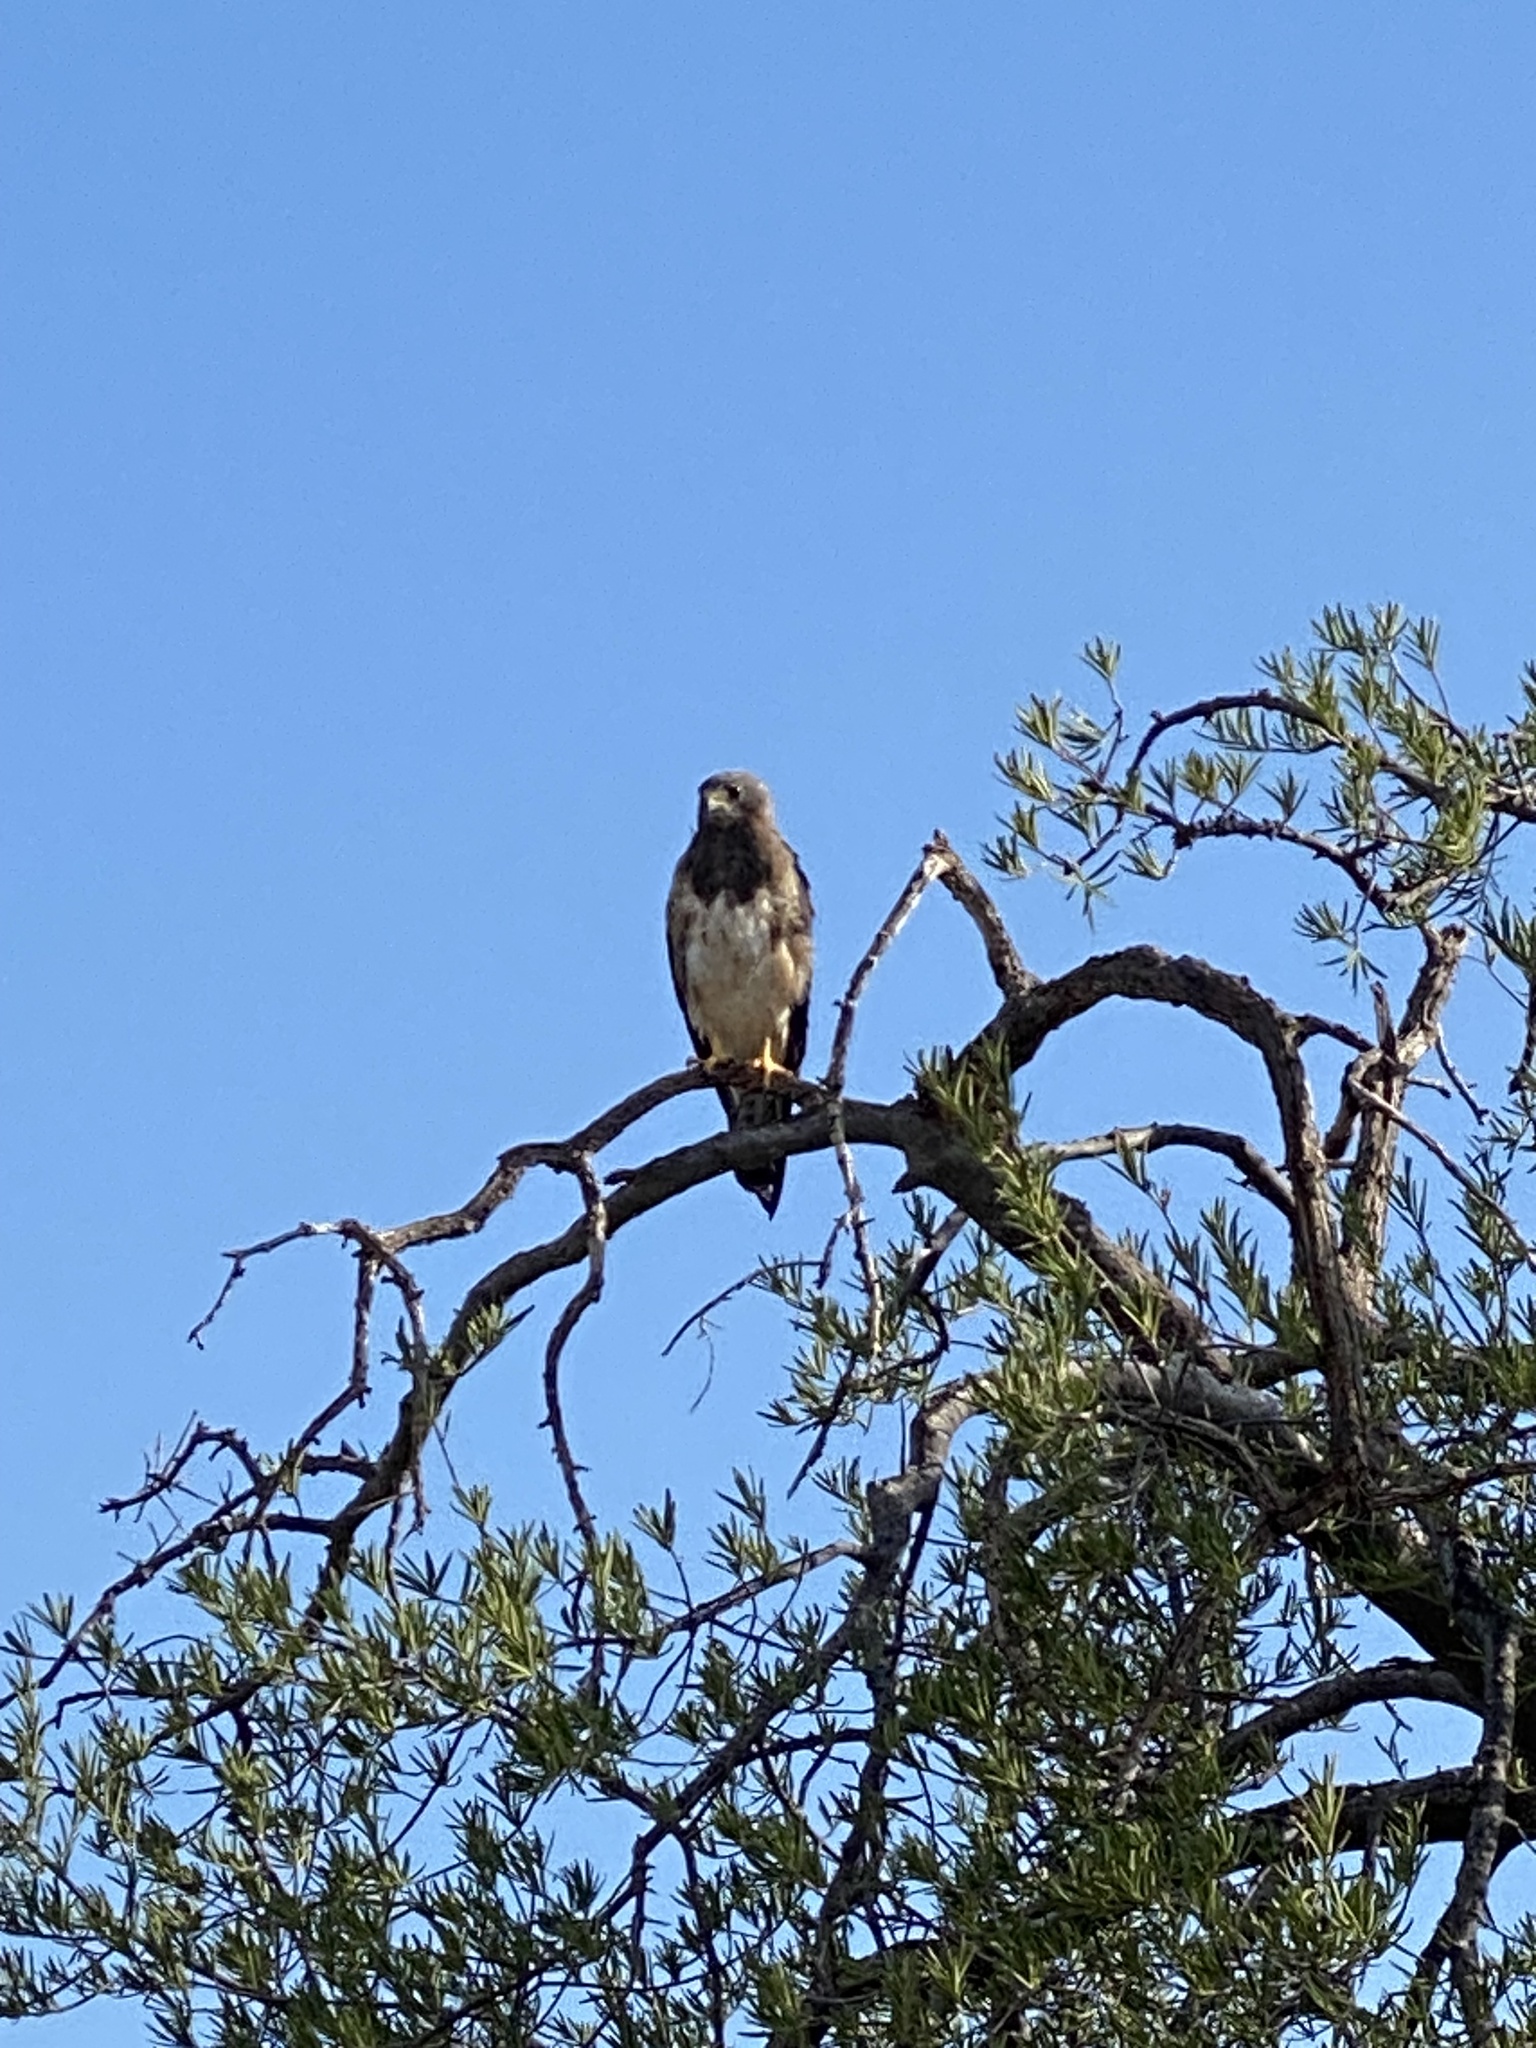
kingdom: Animalia
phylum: Chordata
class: Aves
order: Accipitriformes
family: Accipitridae
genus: Buteo
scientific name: Buteo swainsoni
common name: Swainson's hawk
